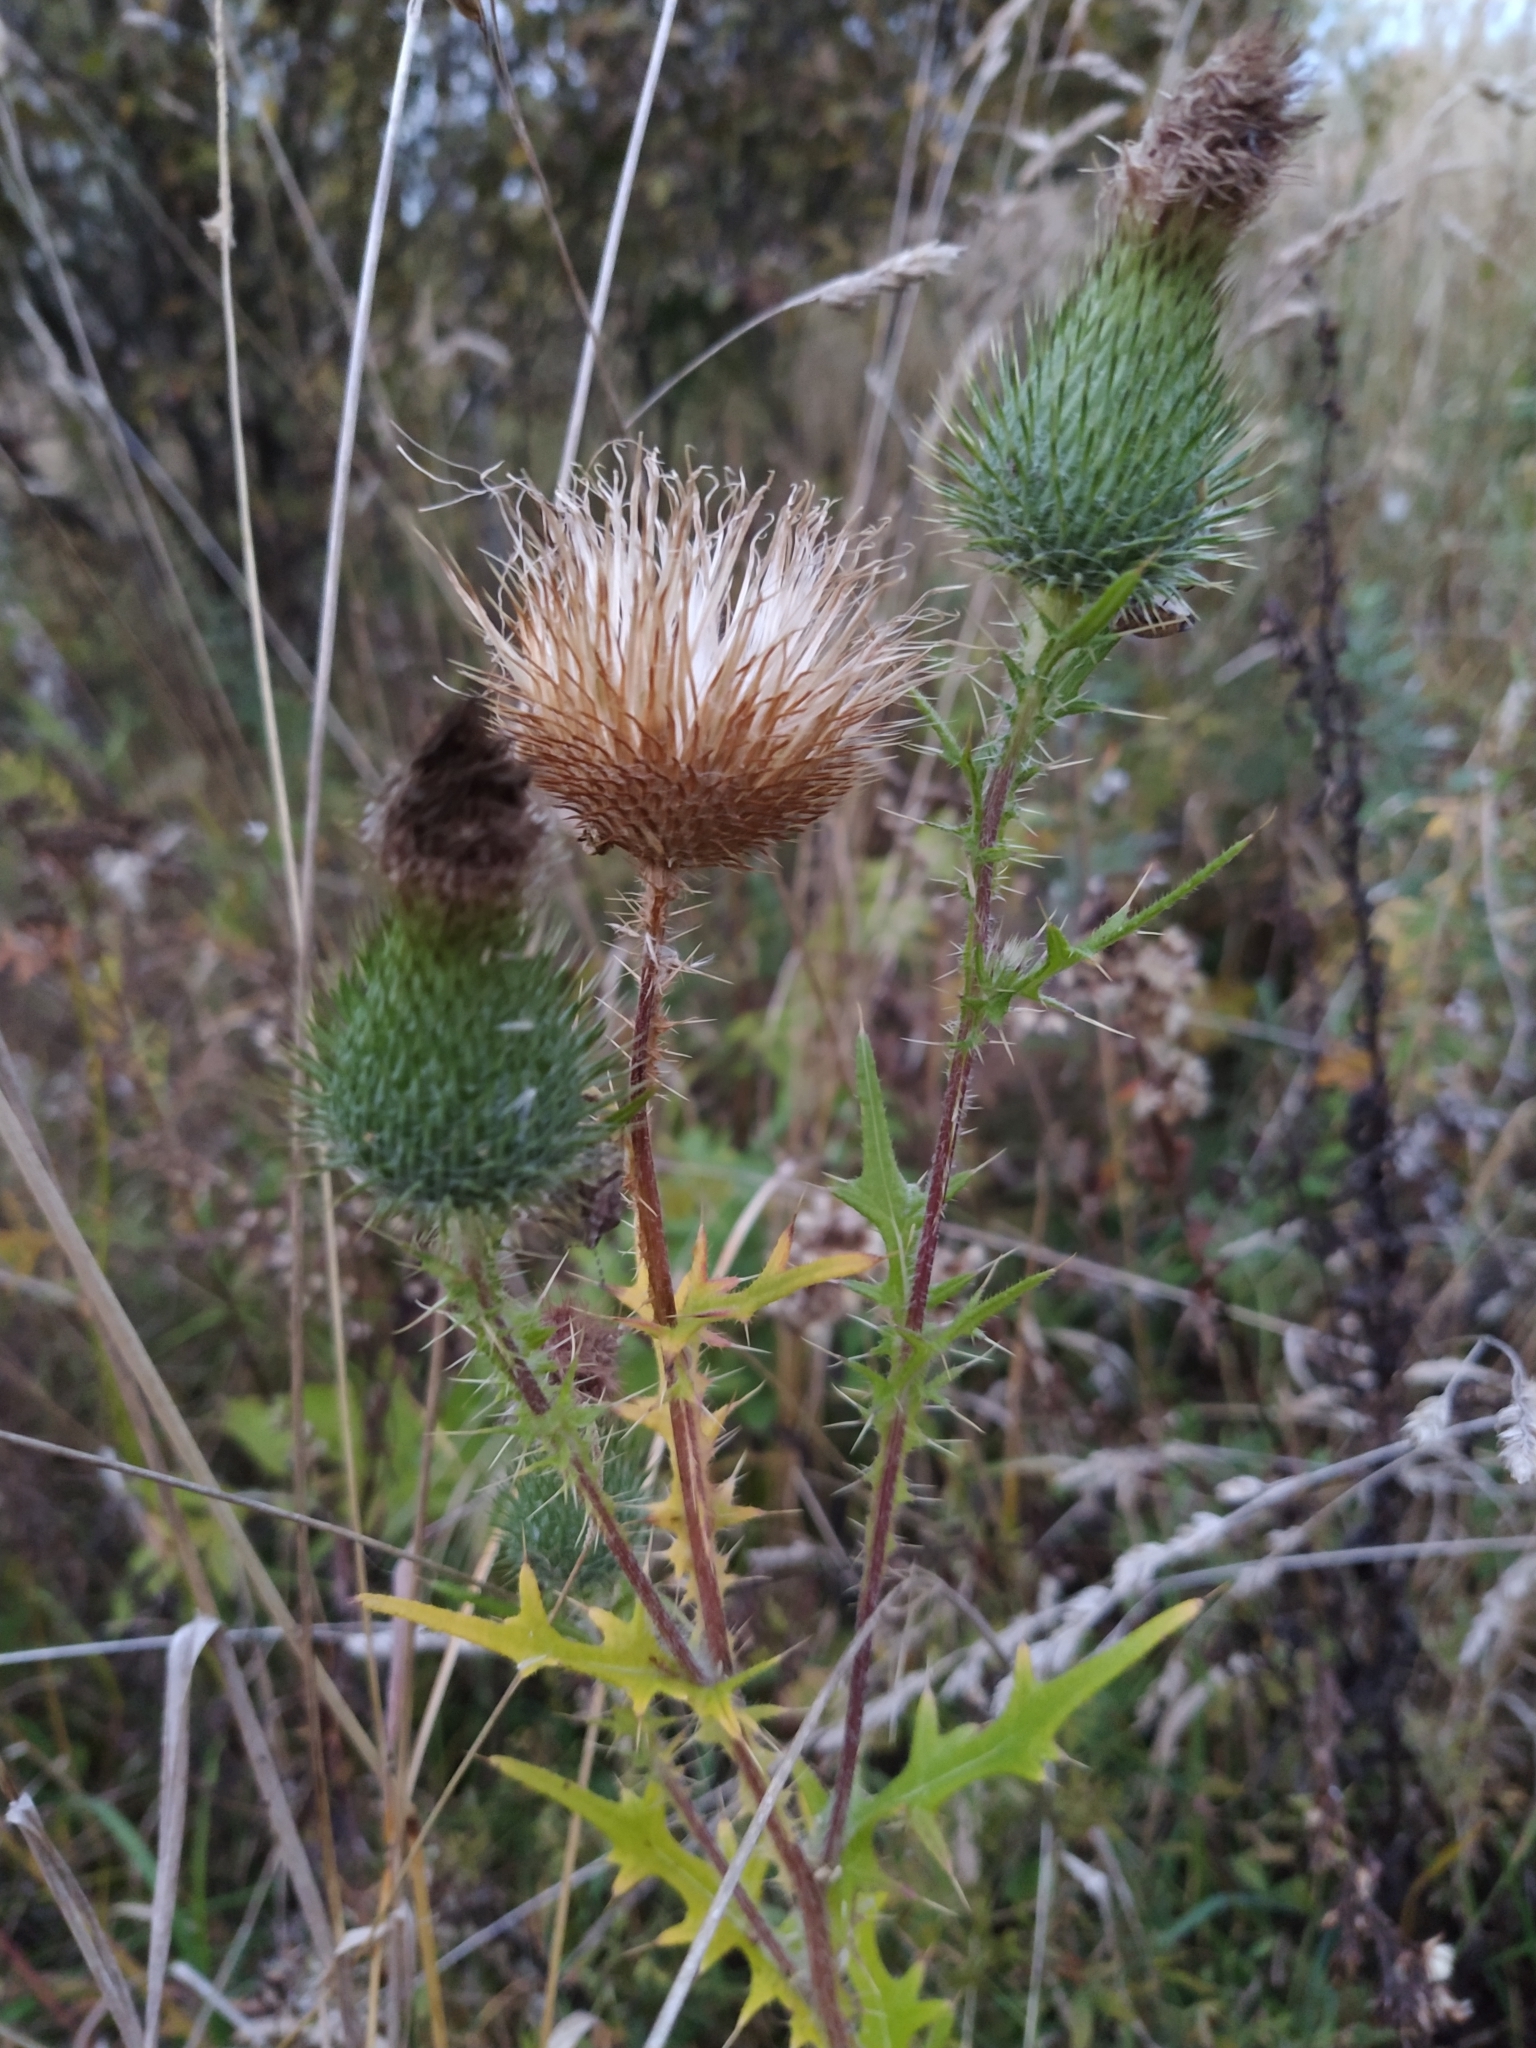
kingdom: Plantae
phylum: Tracheophyta
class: Magnoliopsida
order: Asterales
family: Asteraceae
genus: Cirsium
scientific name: Cirsium vulgare
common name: Bull thistle
